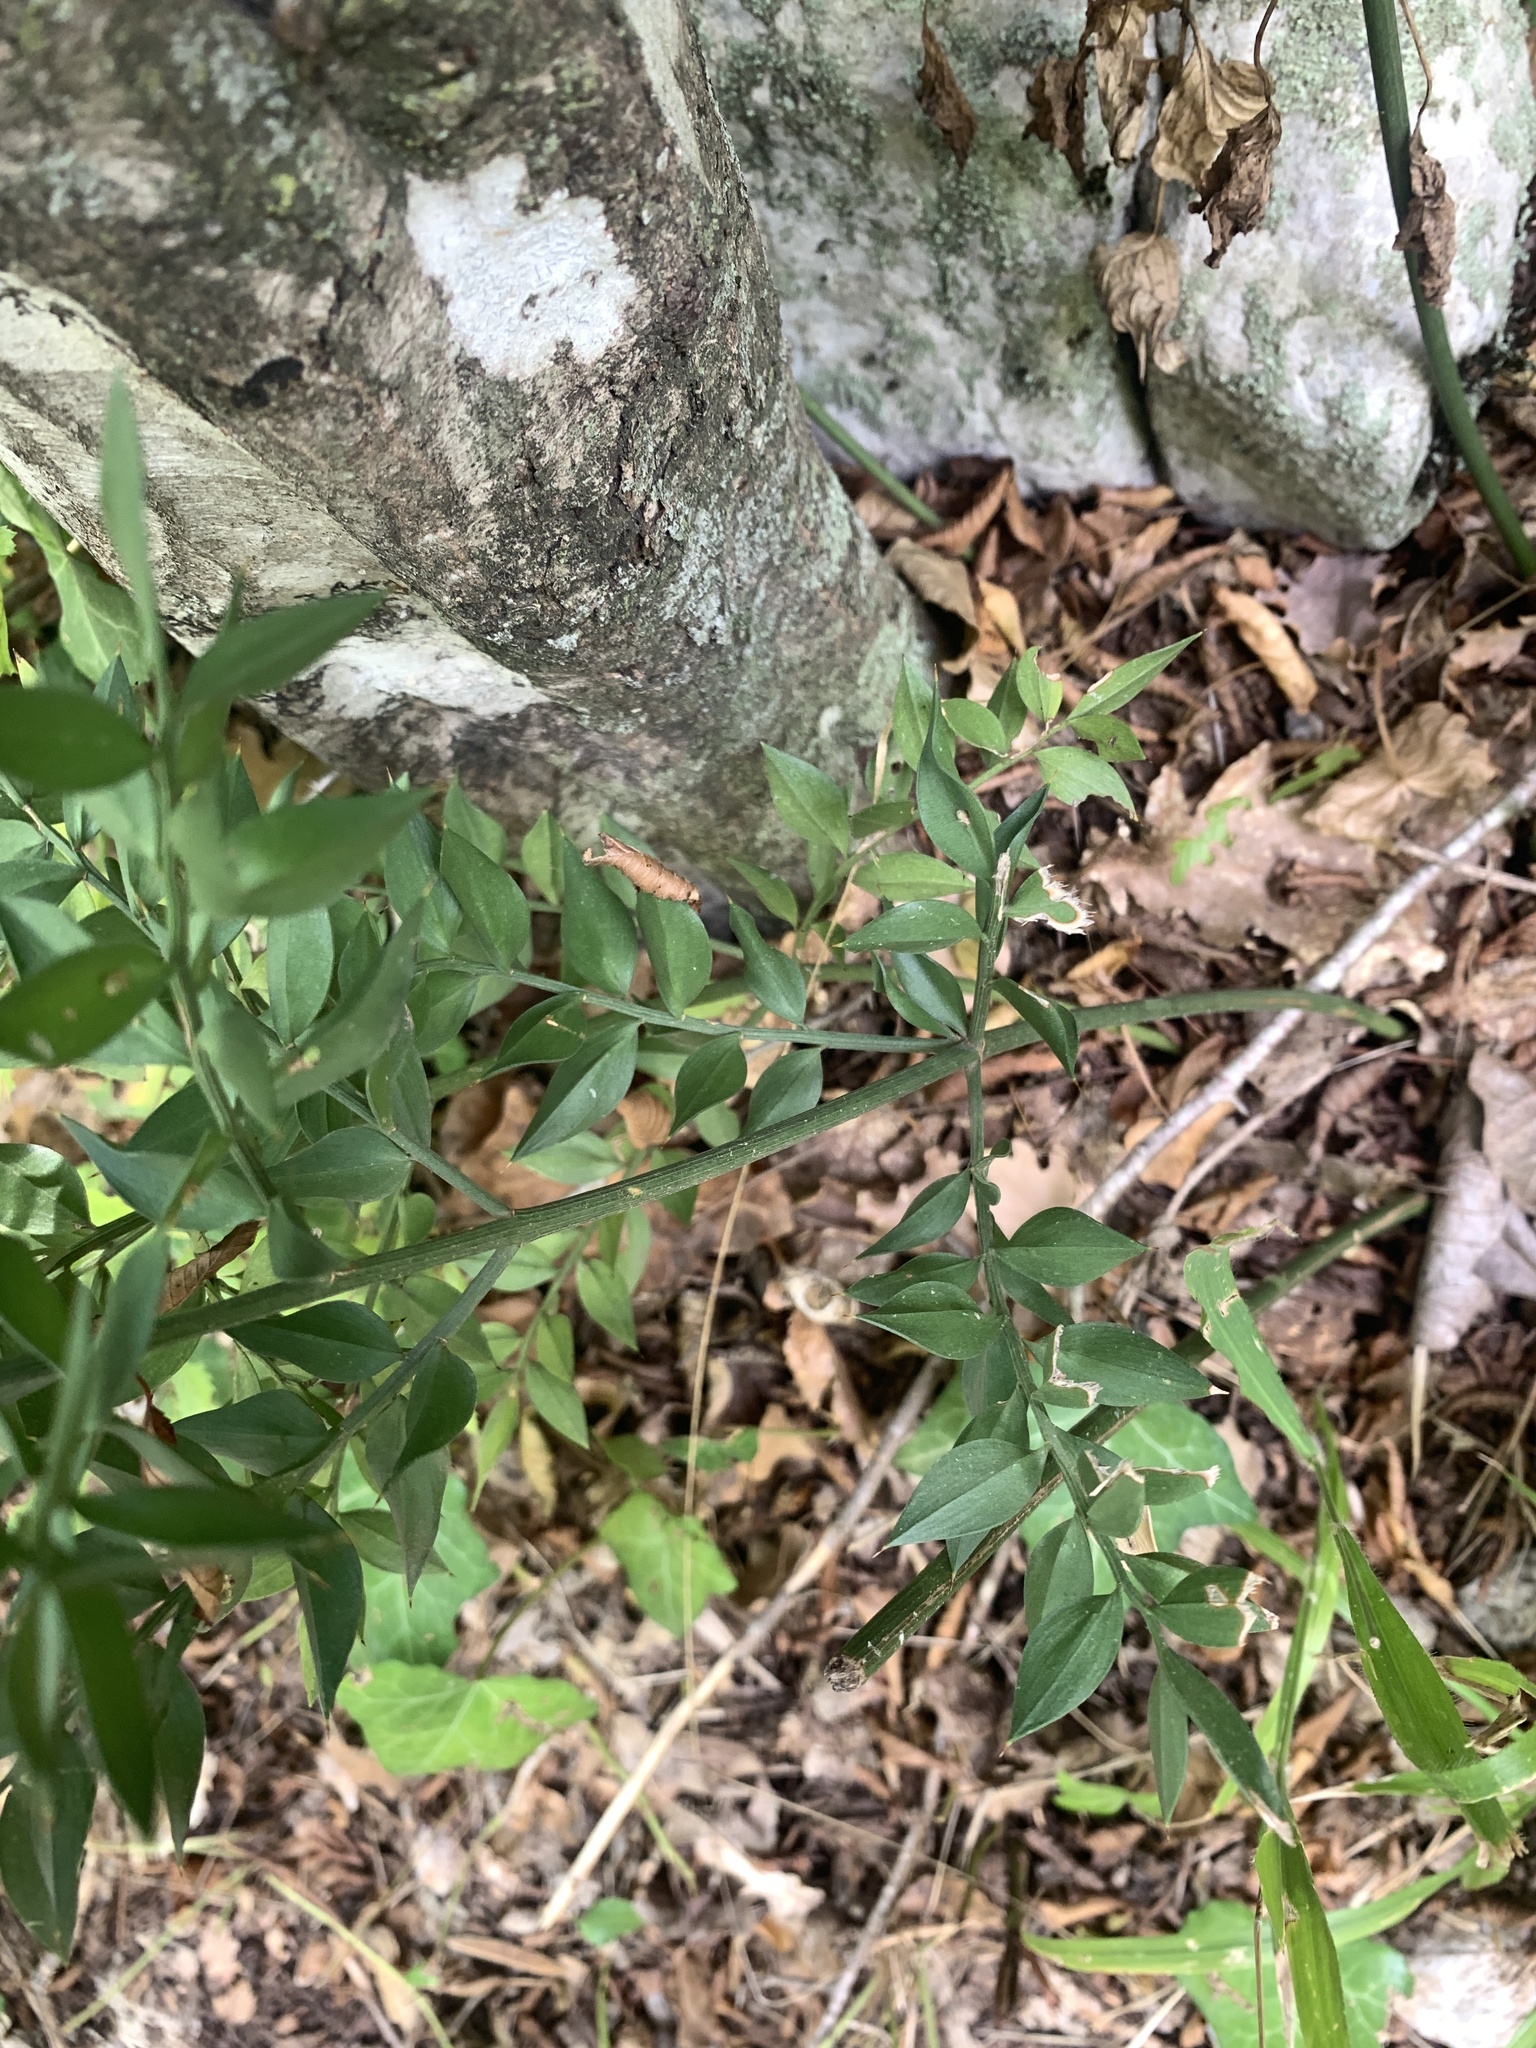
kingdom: Plantae
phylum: Tracheophyta
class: Liliopsida
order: Asparagales
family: Asparagaceae
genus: Ruscus
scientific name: Ruscus aculeatus
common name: Butcher's-broom
